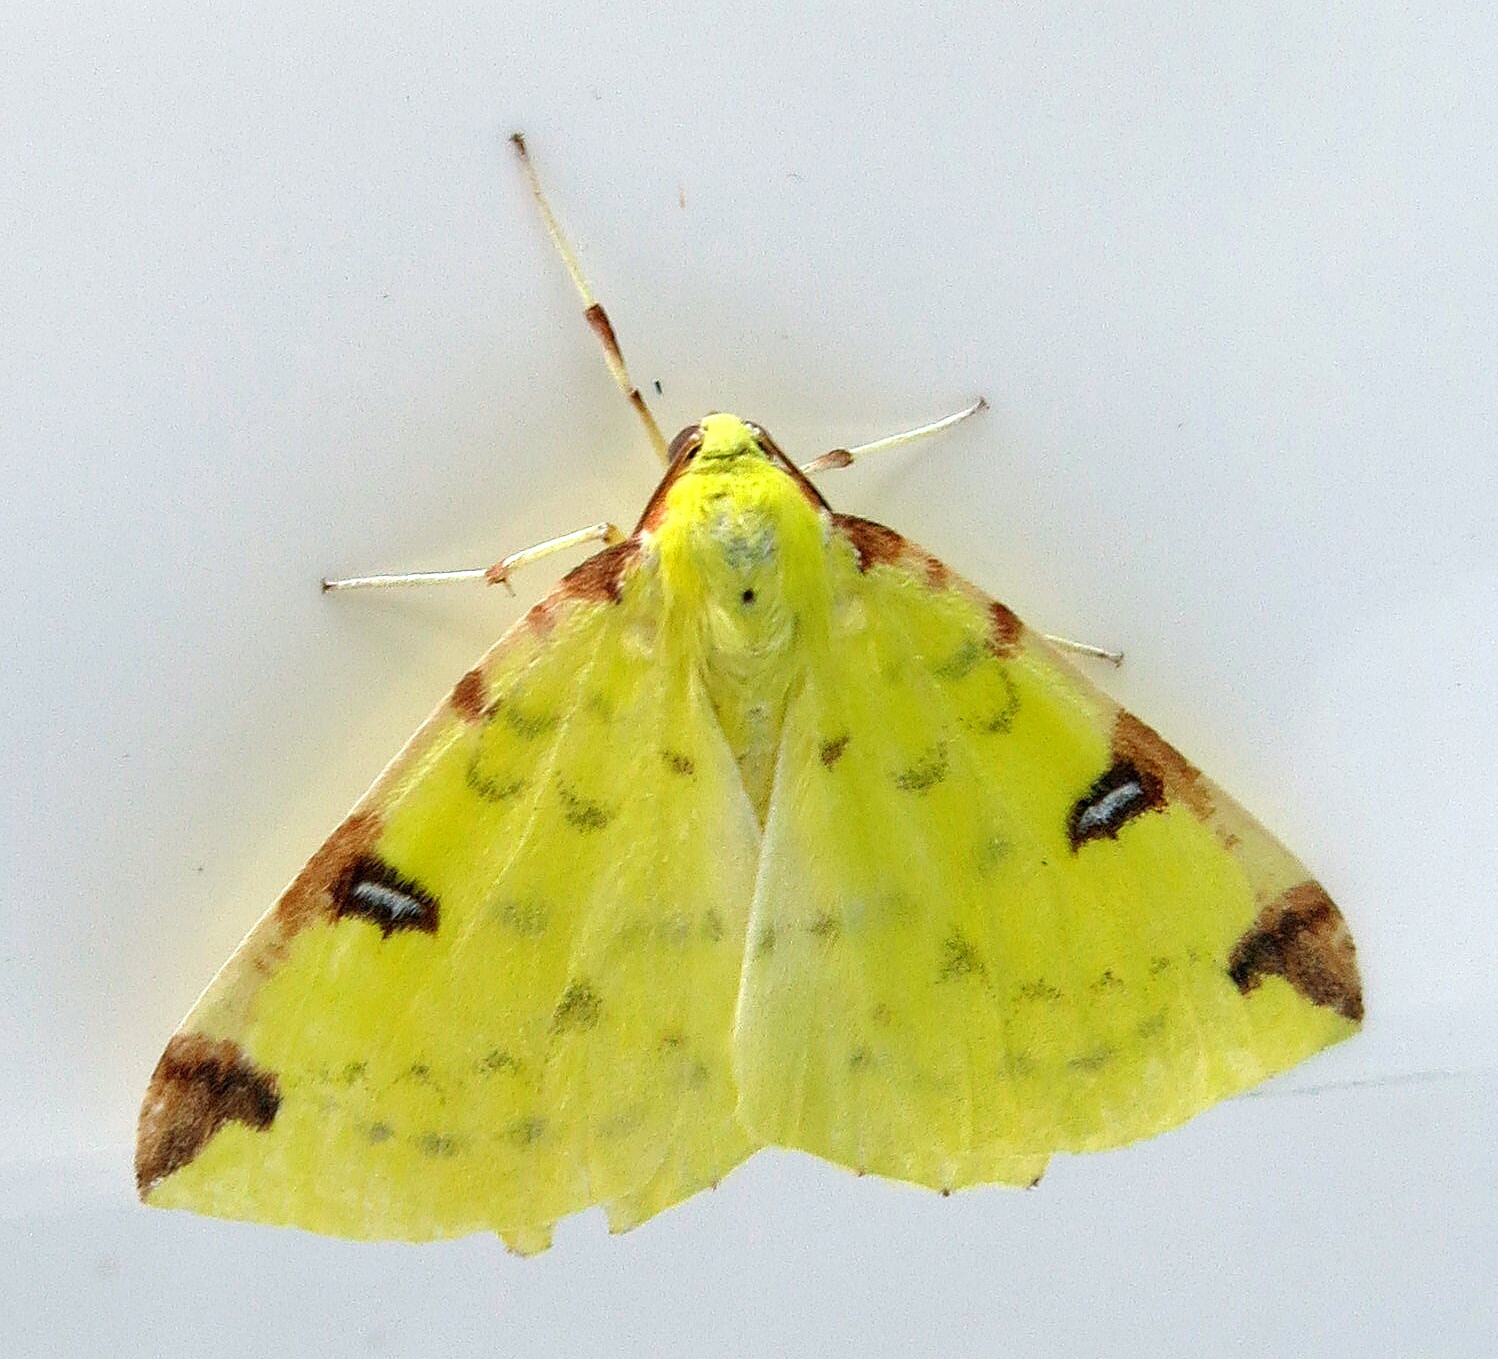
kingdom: Animalia
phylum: Arthropoda
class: Insecta
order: Lepidoptera
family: Geometridae
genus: Opisthograptis
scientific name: Opisthograptis luteolata
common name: Brimstone moth
